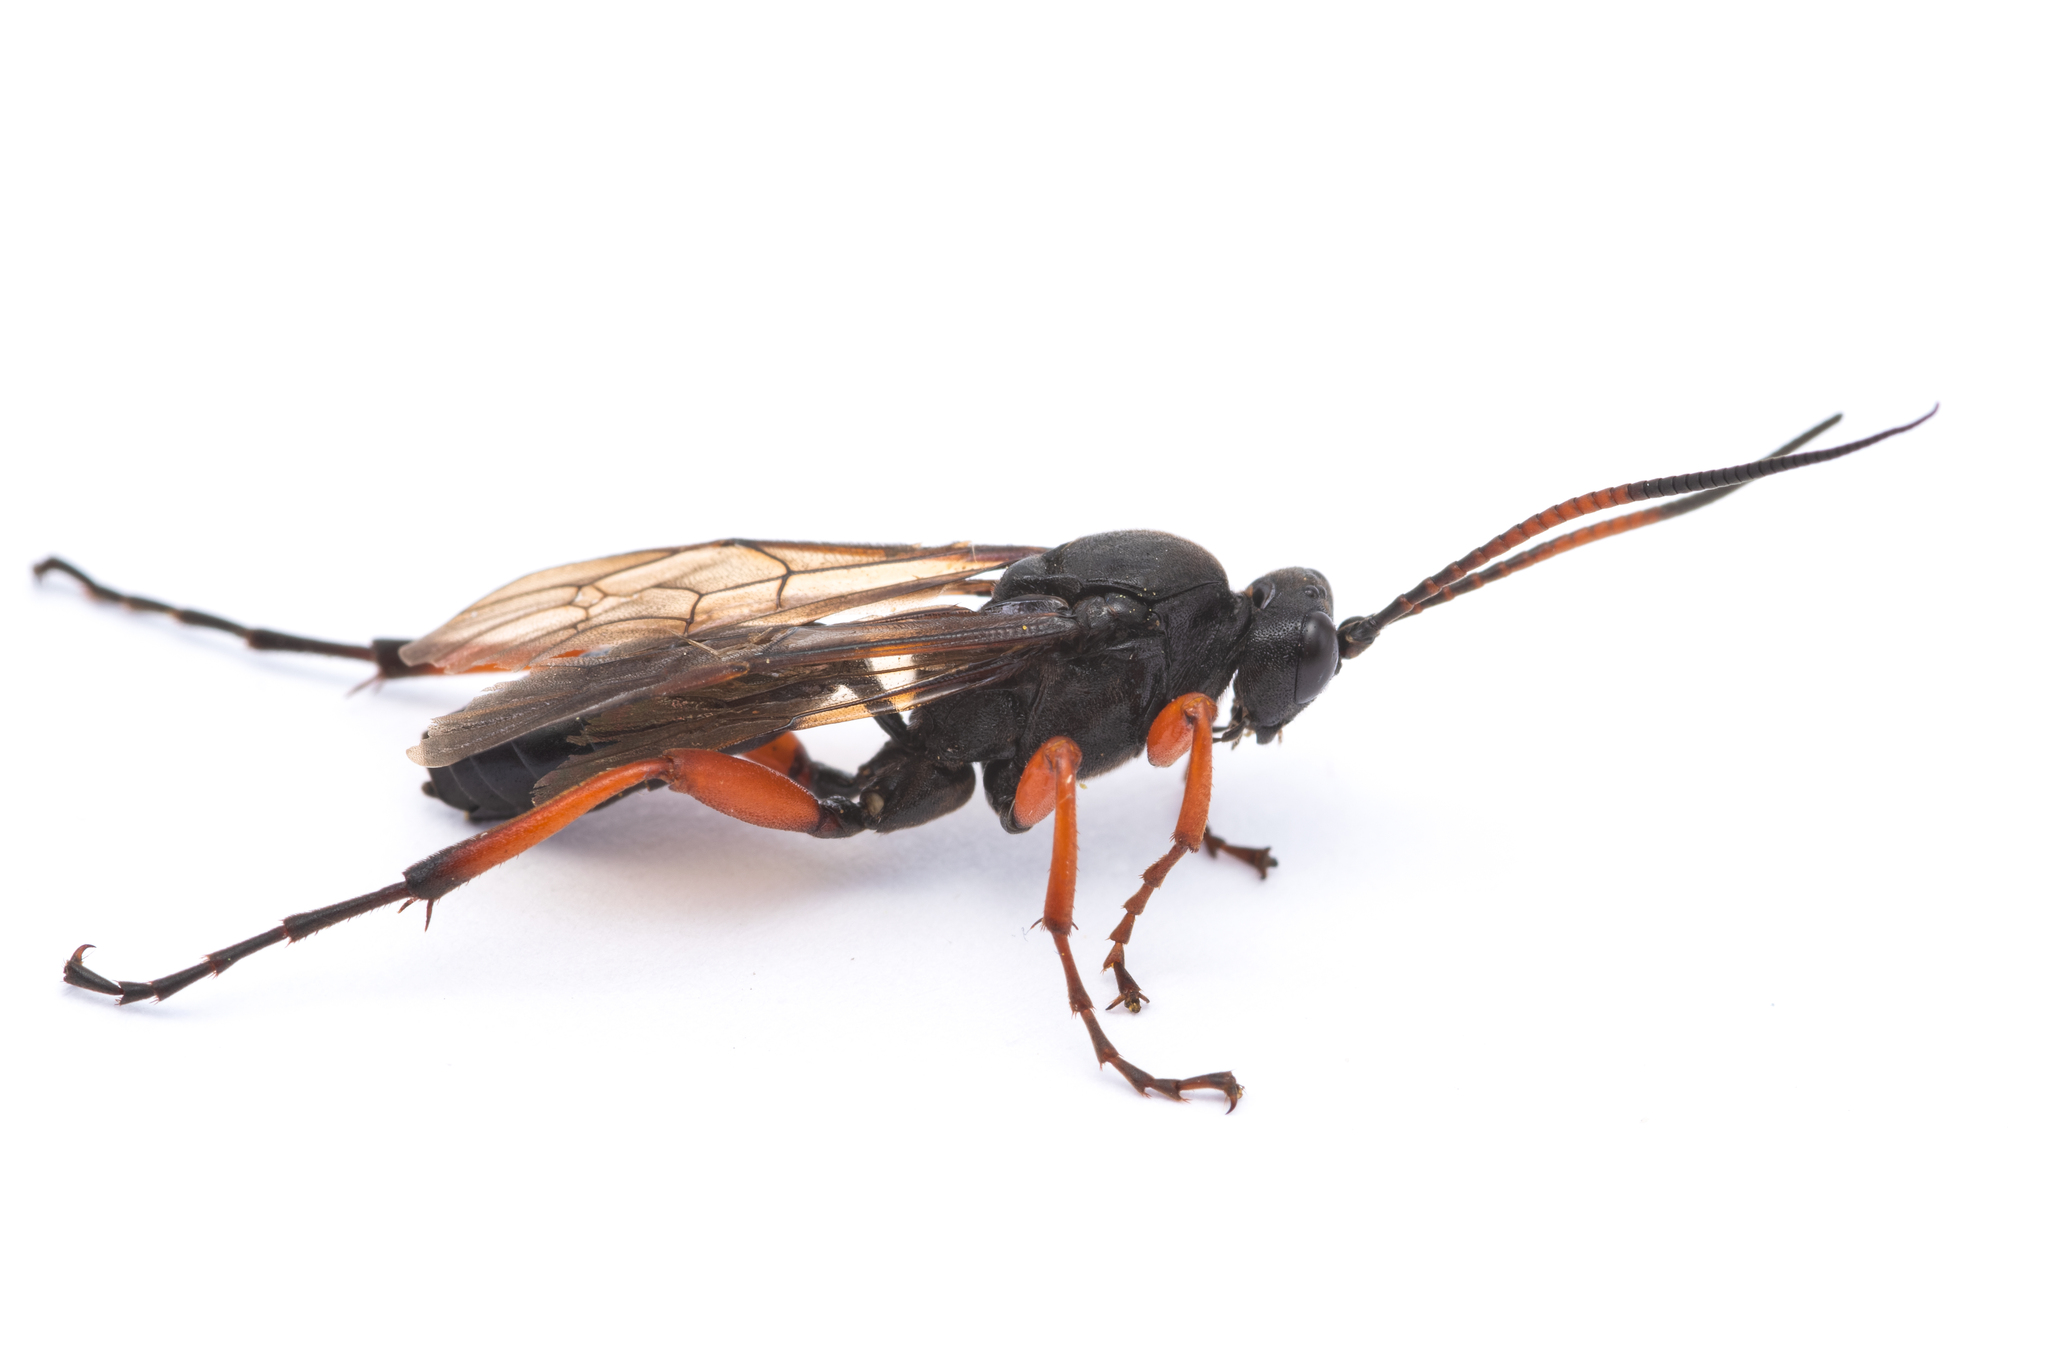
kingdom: Animalia
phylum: Arthropoda
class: Insecta
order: Hymenoptera
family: Ichneumonidae
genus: Ctenichneumon
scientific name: Ctenichneumon castigator
